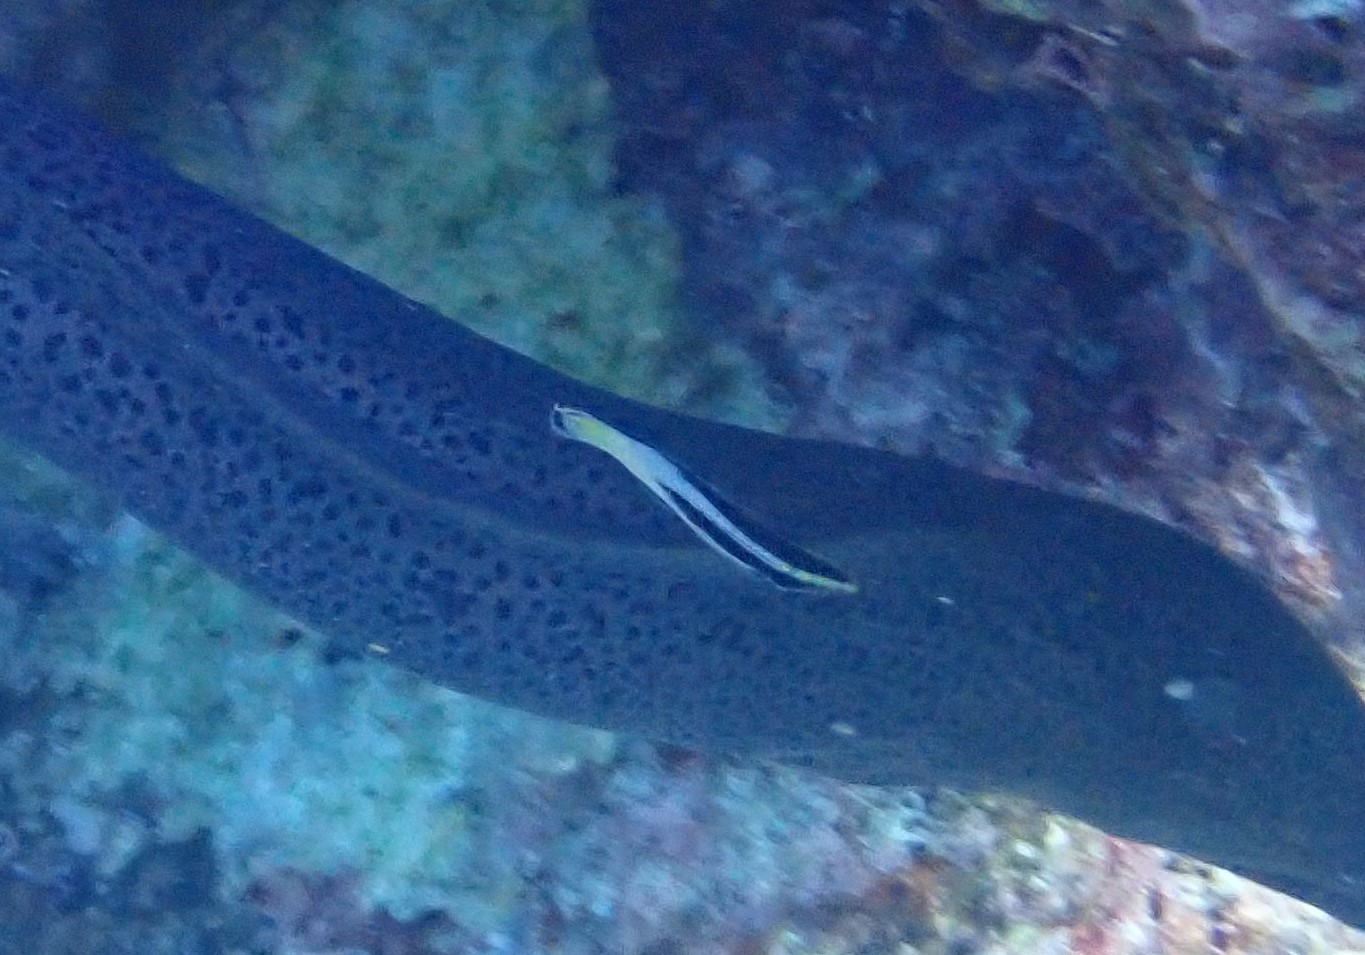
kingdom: Animalia
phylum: Chordata
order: Perciformes
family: Labridae
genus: Labroides
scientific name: Labroides bicolor
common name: Bicolor cleaner wrasse
